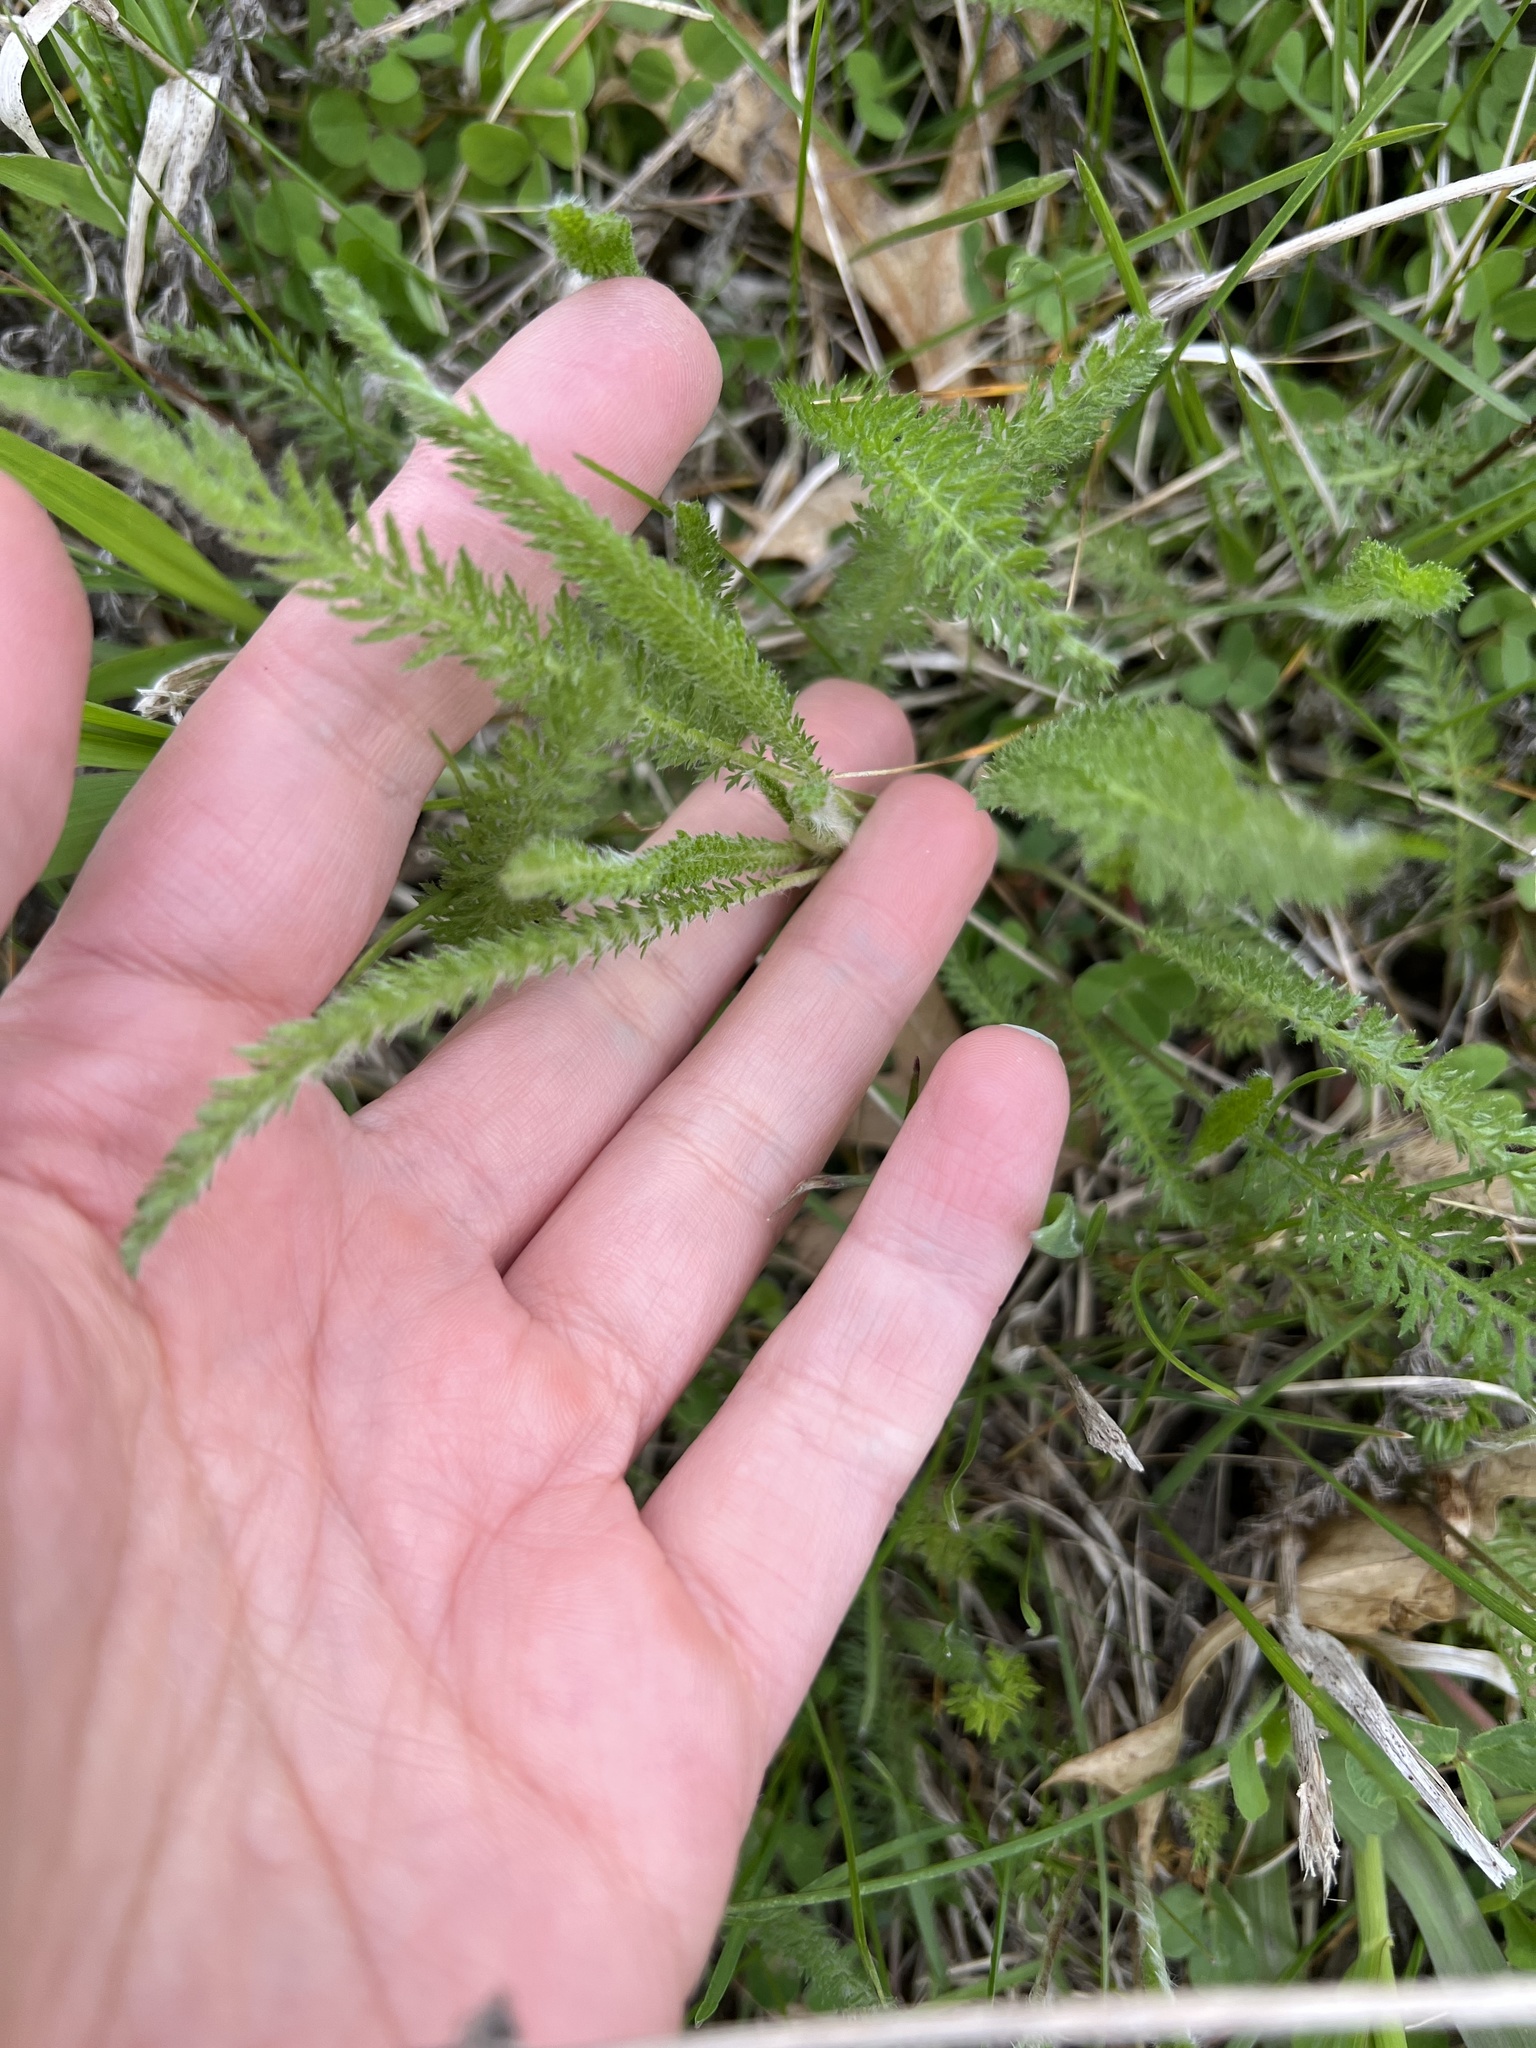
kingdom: Plantae
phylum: Tracheophyta
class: Magnoliopsida
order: Asterales
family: Asteraceae
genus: Achillea
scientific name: Achillea millefolium
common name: Yarrow
